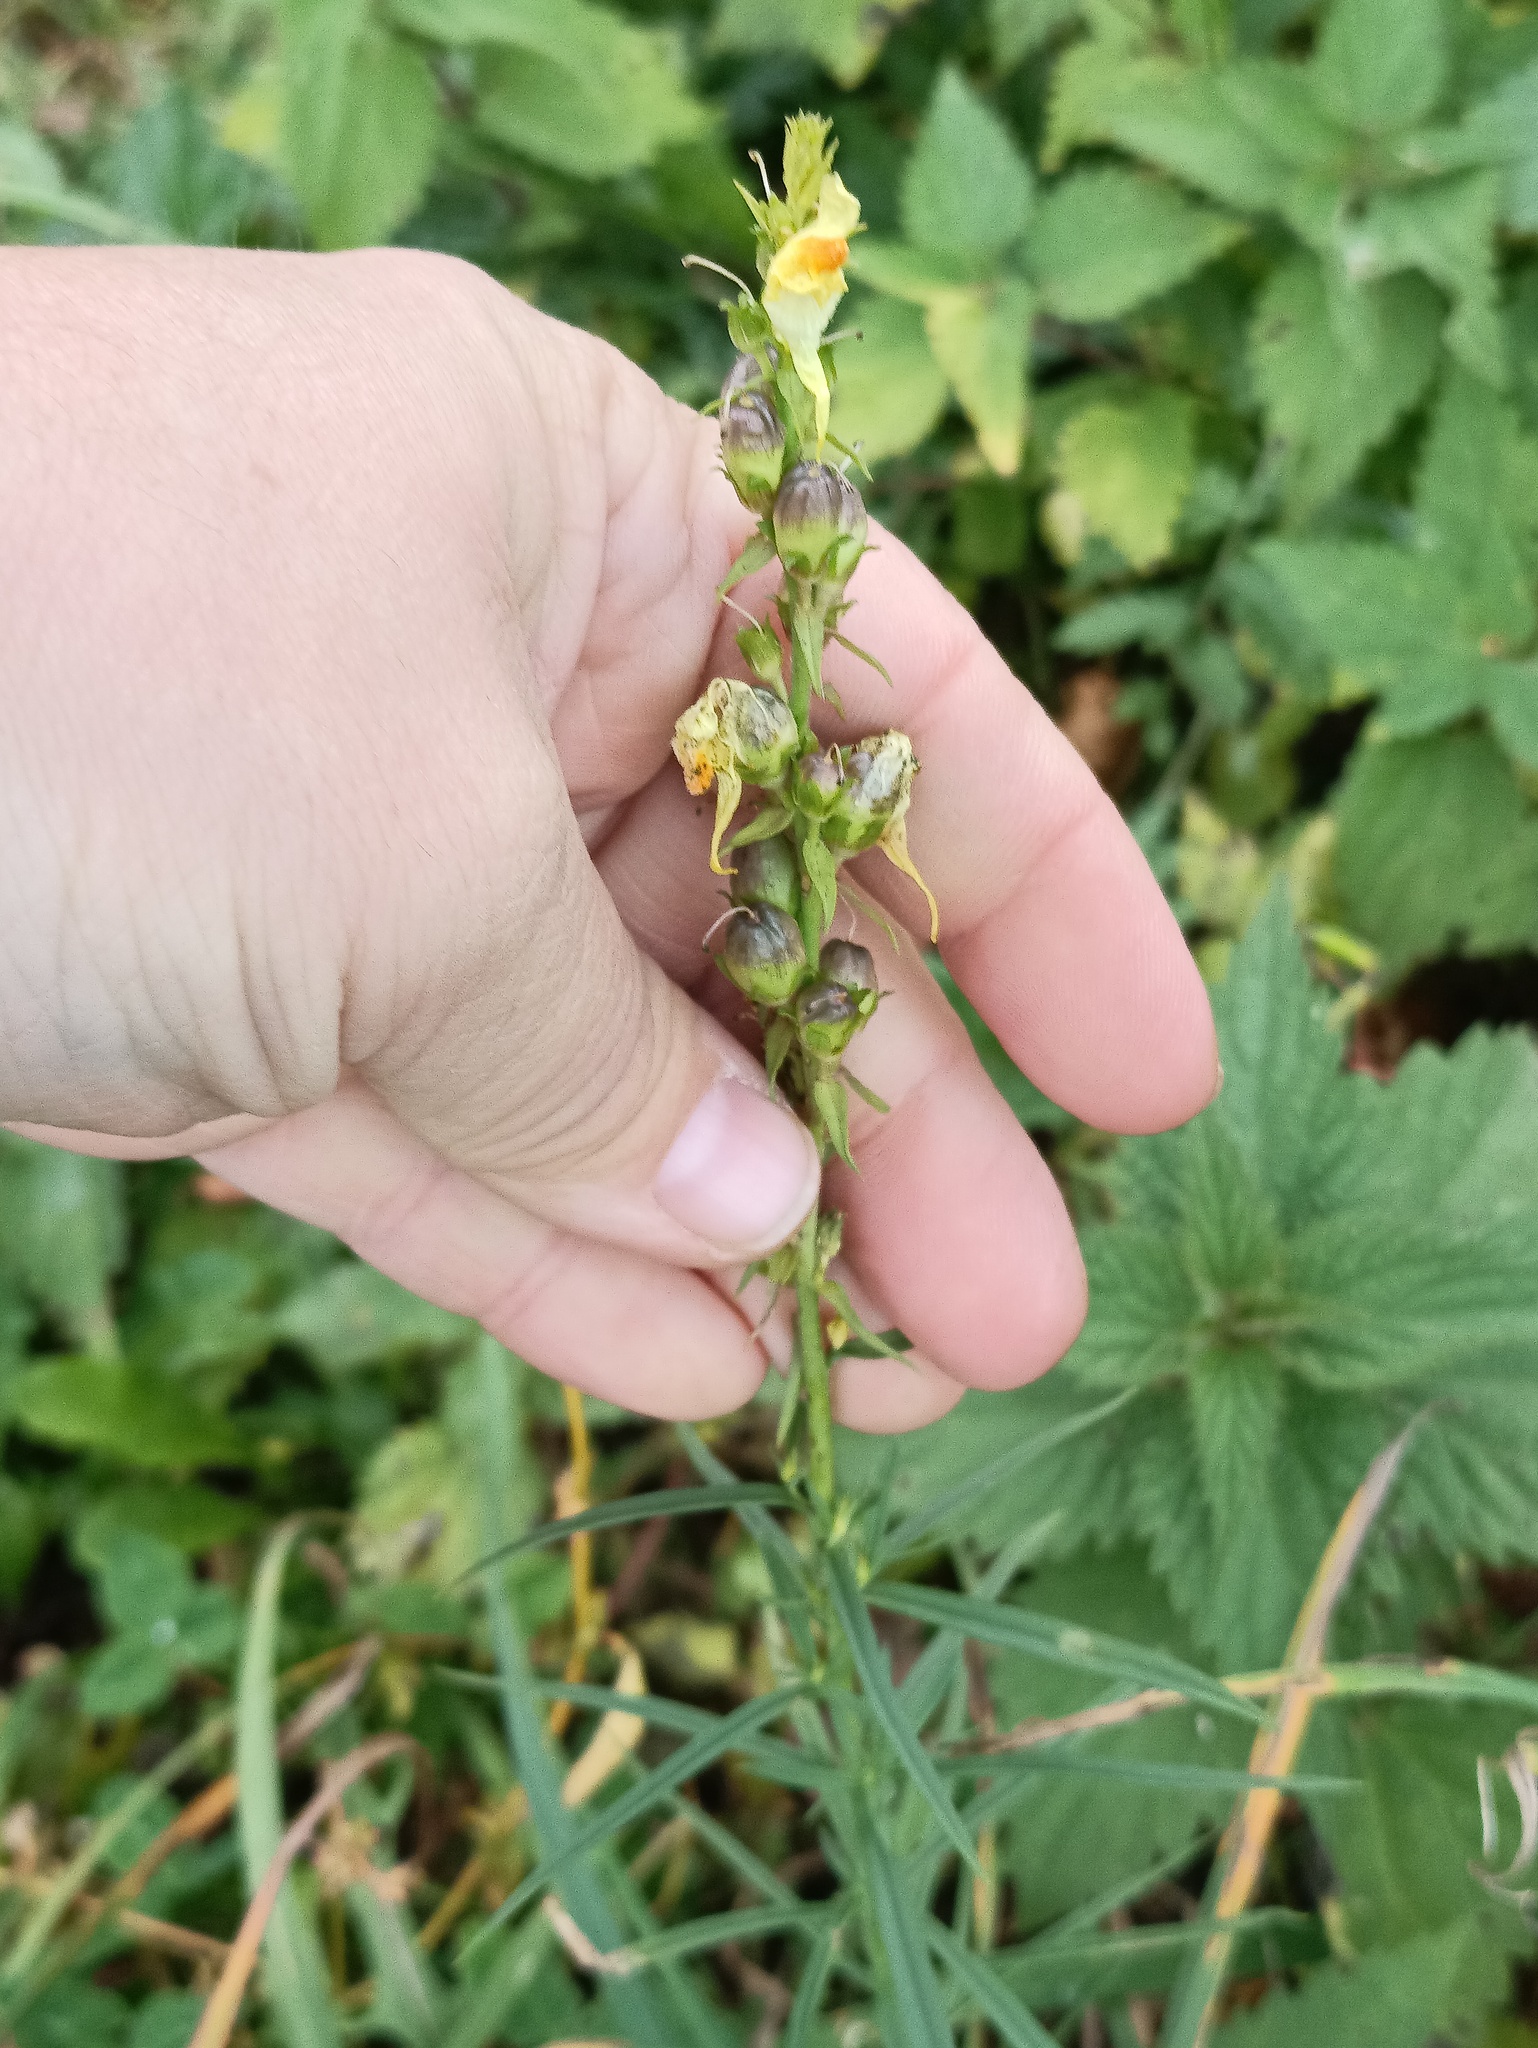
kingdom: Plantae
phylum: Tracheophyta
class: Magnoliopsida
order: Lamiales
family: Plantaginaceae
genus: Linaria
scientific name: Linaria vulgaris
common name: Butter and eggs
